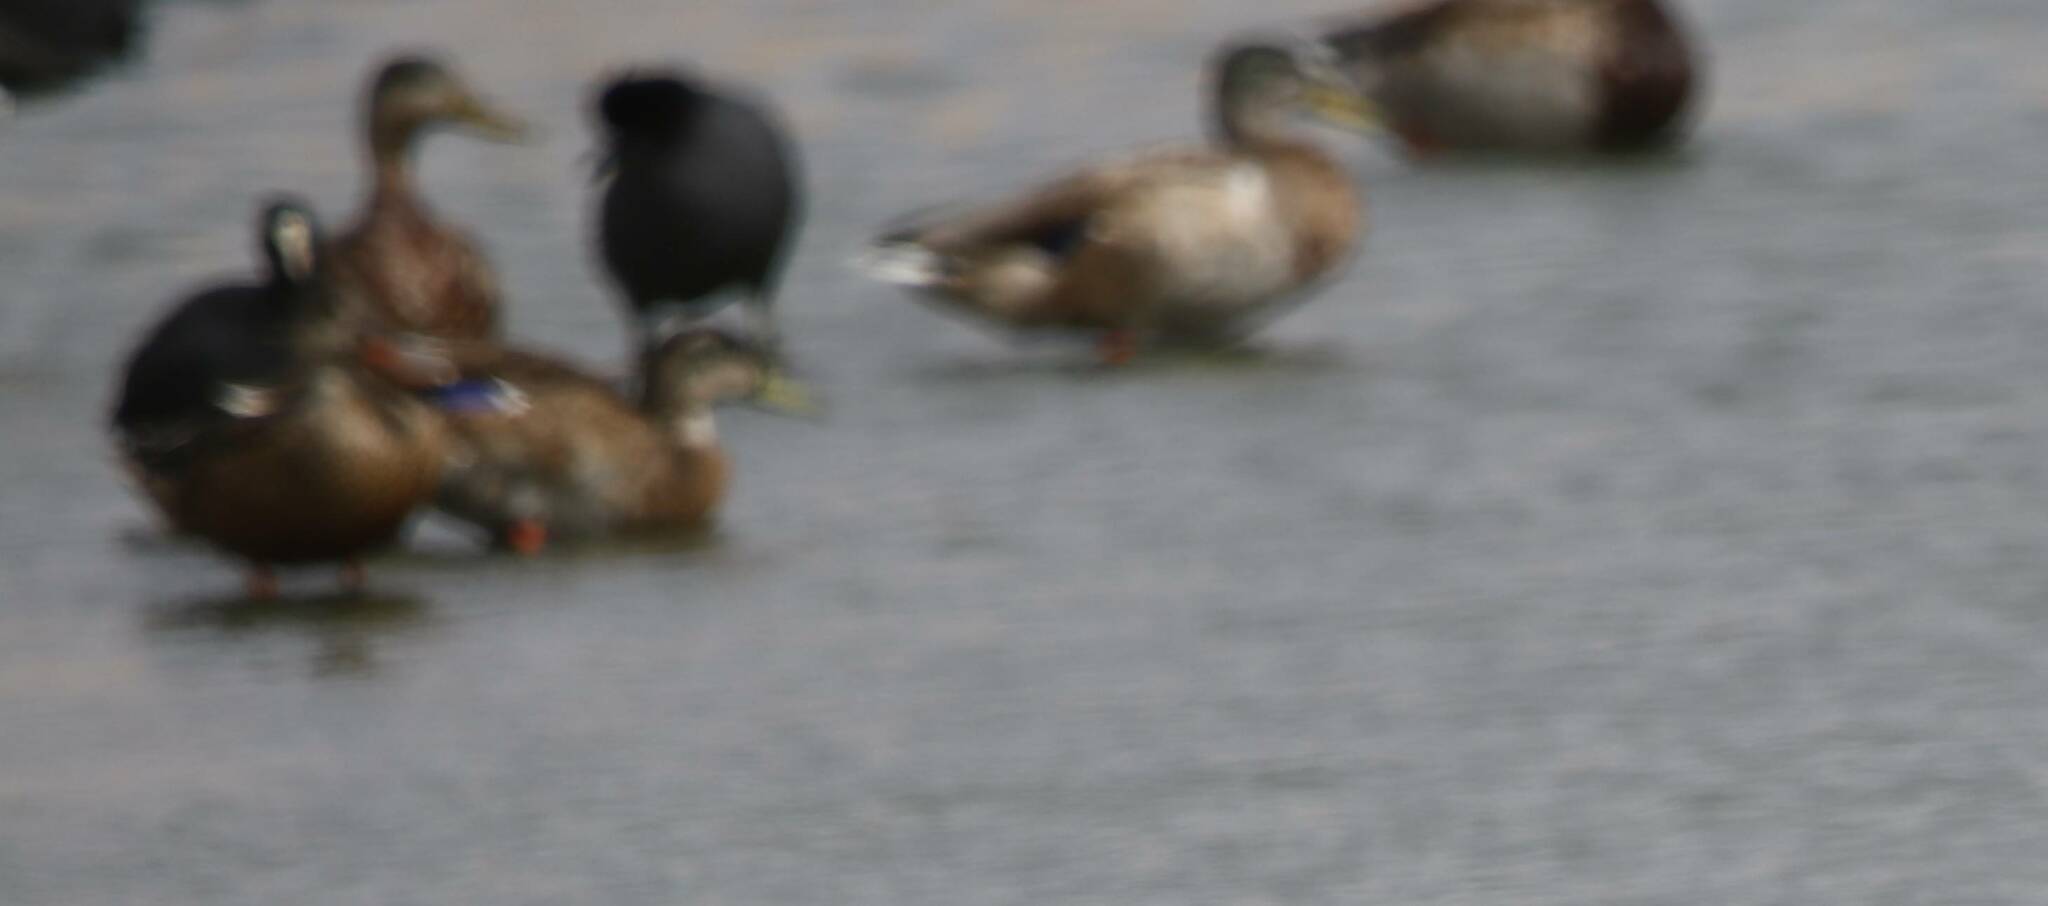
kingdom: Animalia
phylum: Chordata
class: Aves
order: Anseriformes
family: Anatidae
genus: Anas
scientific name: Anas platyrhynchos
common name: Mallard
